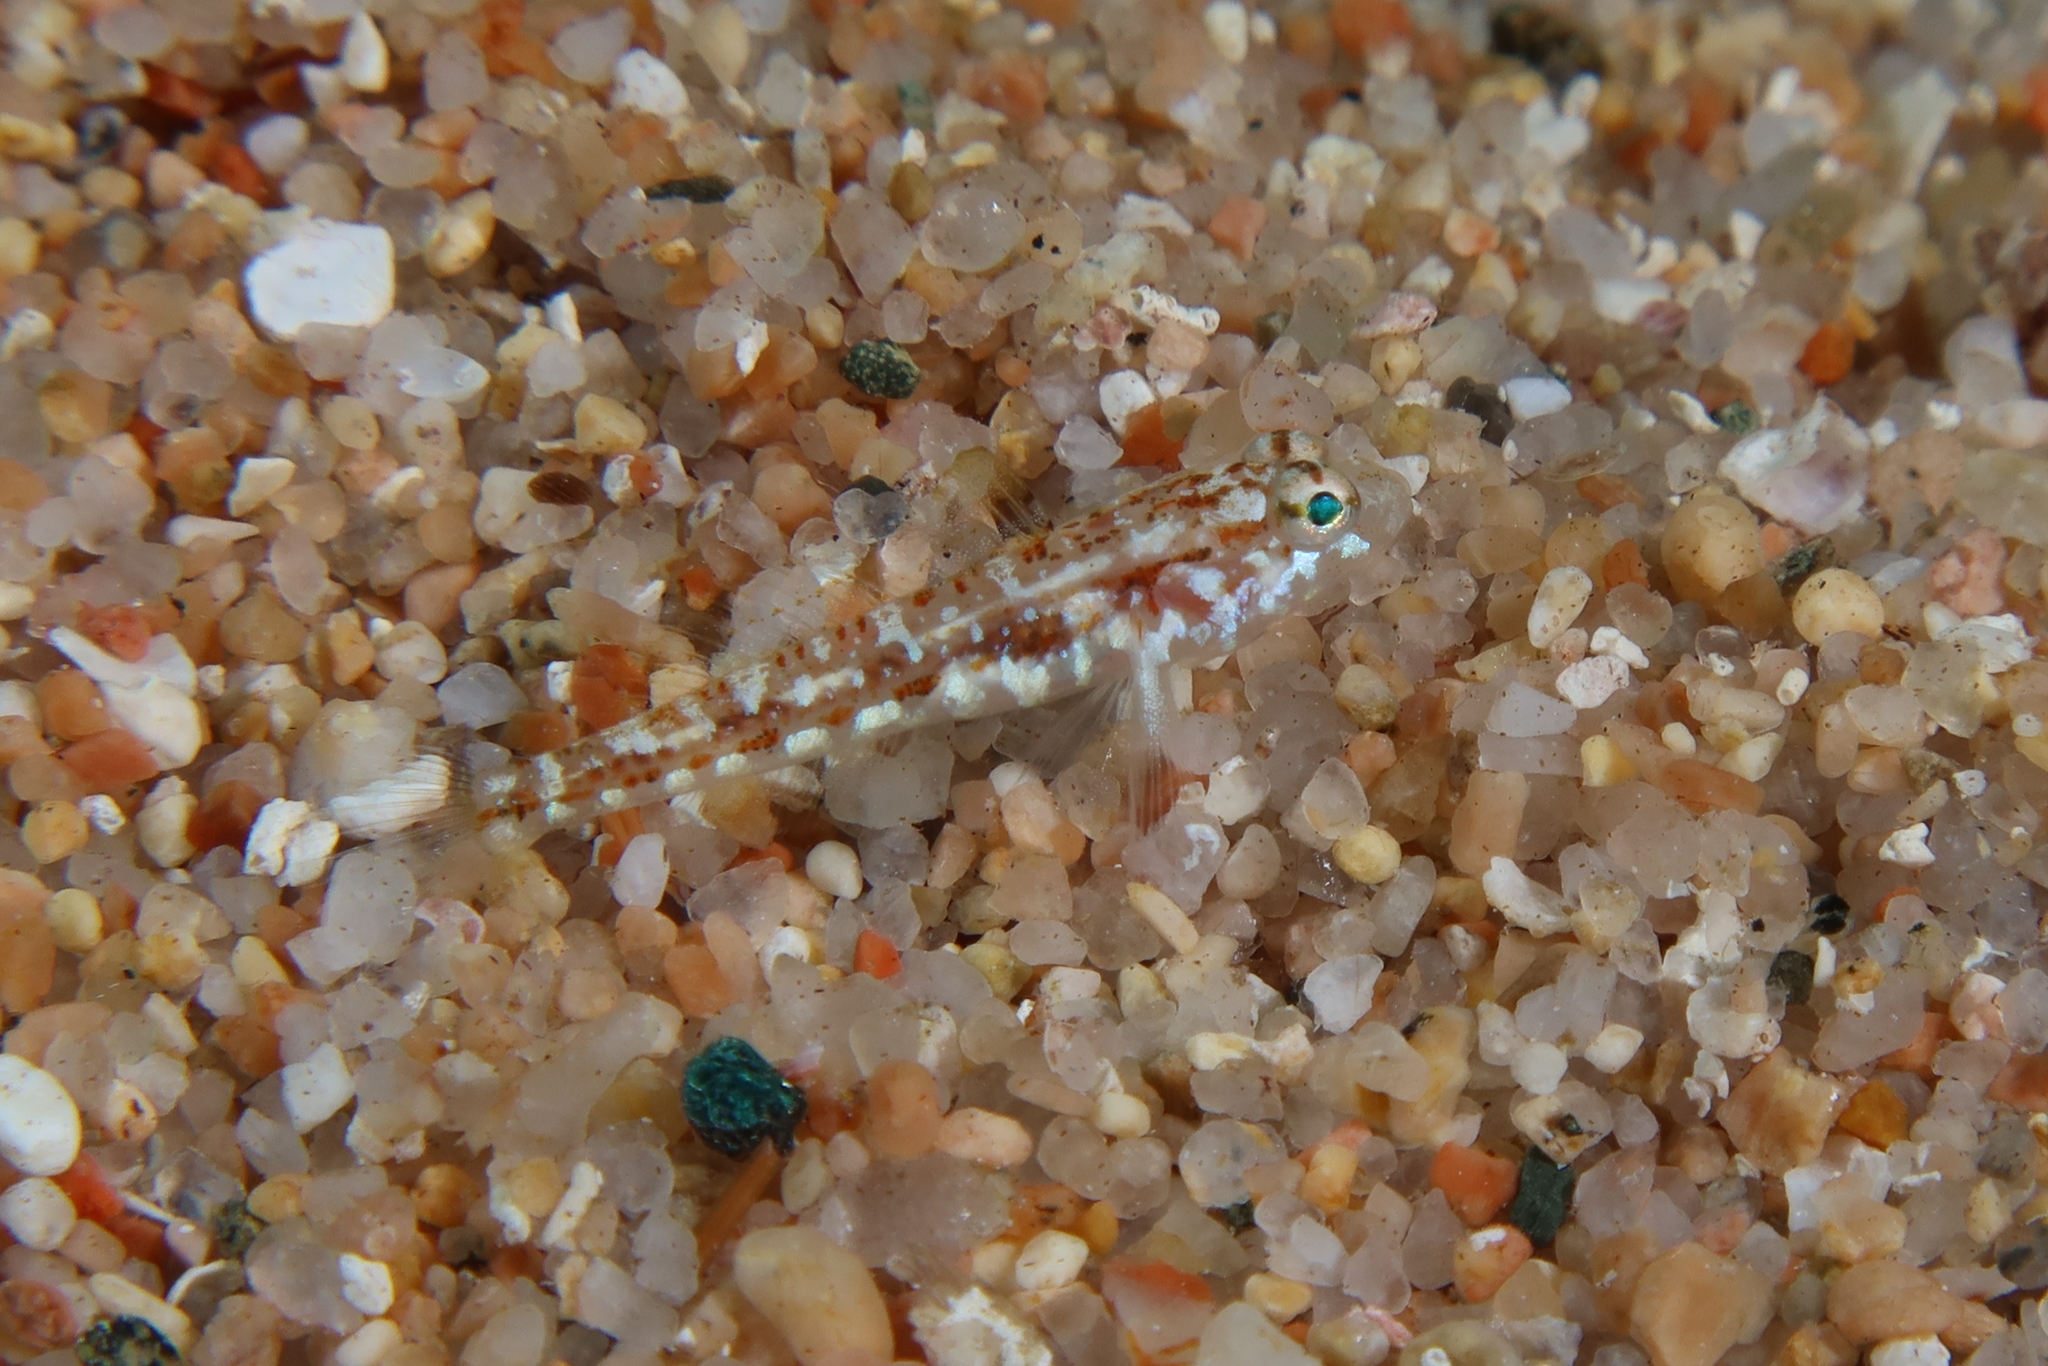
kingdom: Animalia
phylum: Chordata
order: Perciformes
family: Gobiidae
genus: Gobius
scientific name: Gobius roulei
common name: Roule's goby
